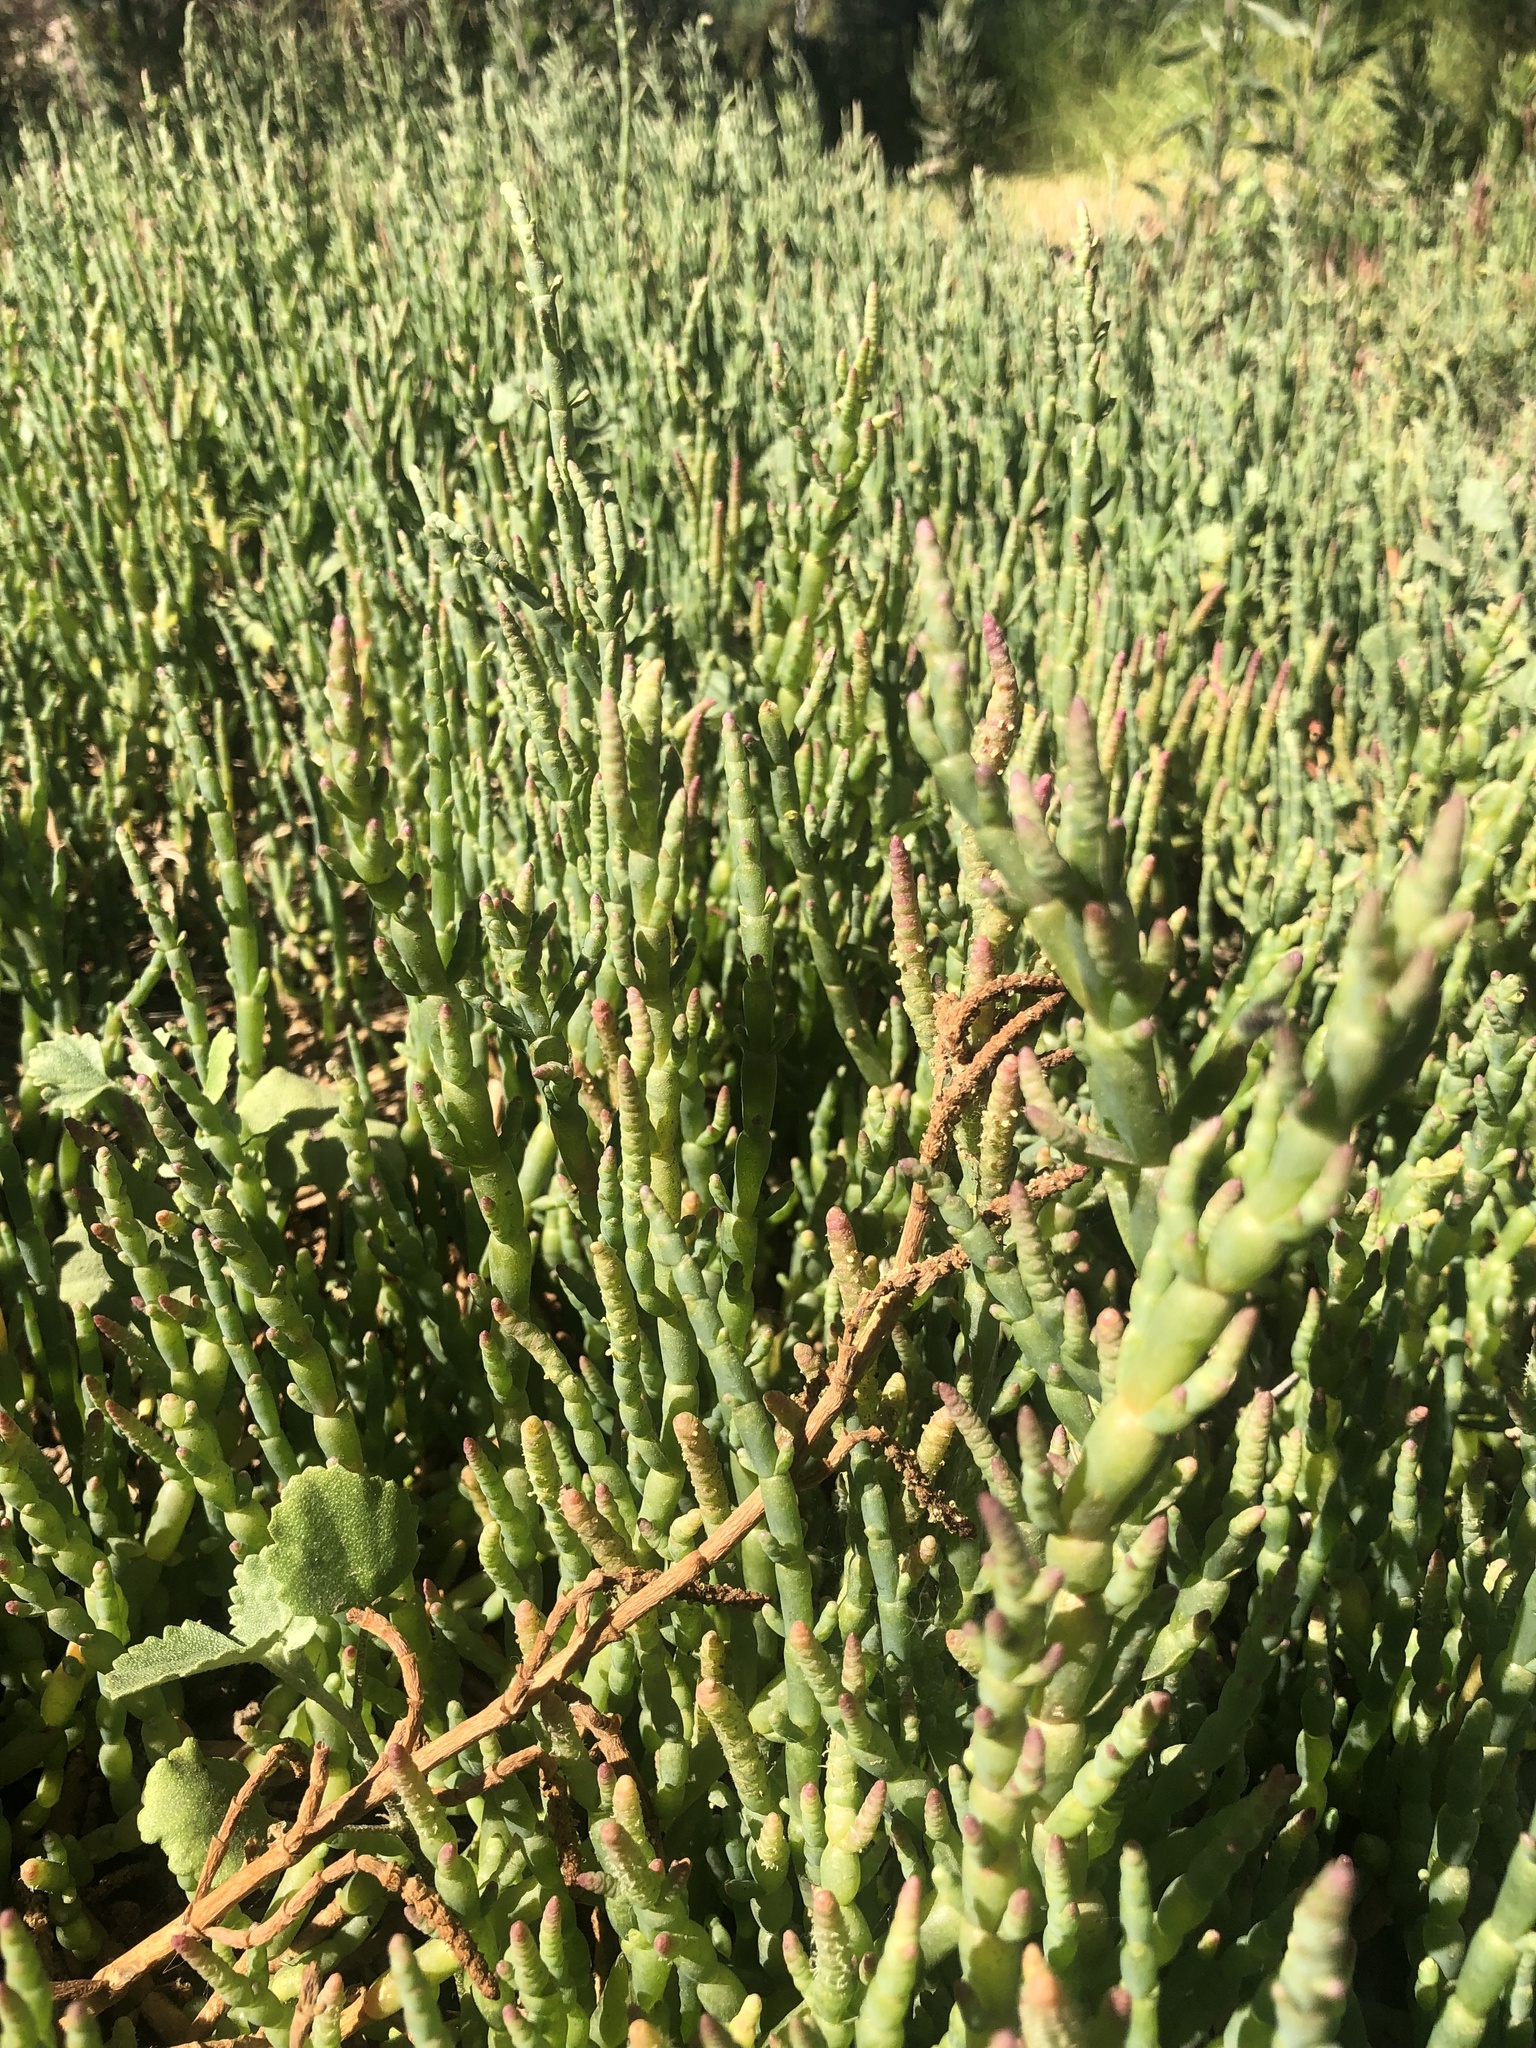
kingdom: Plantae
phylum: Tracheophyta
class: Magnoliopsida
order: Caryophyllales
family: Amaranthaceae
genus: Salicornia
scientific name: Salicornia neei
